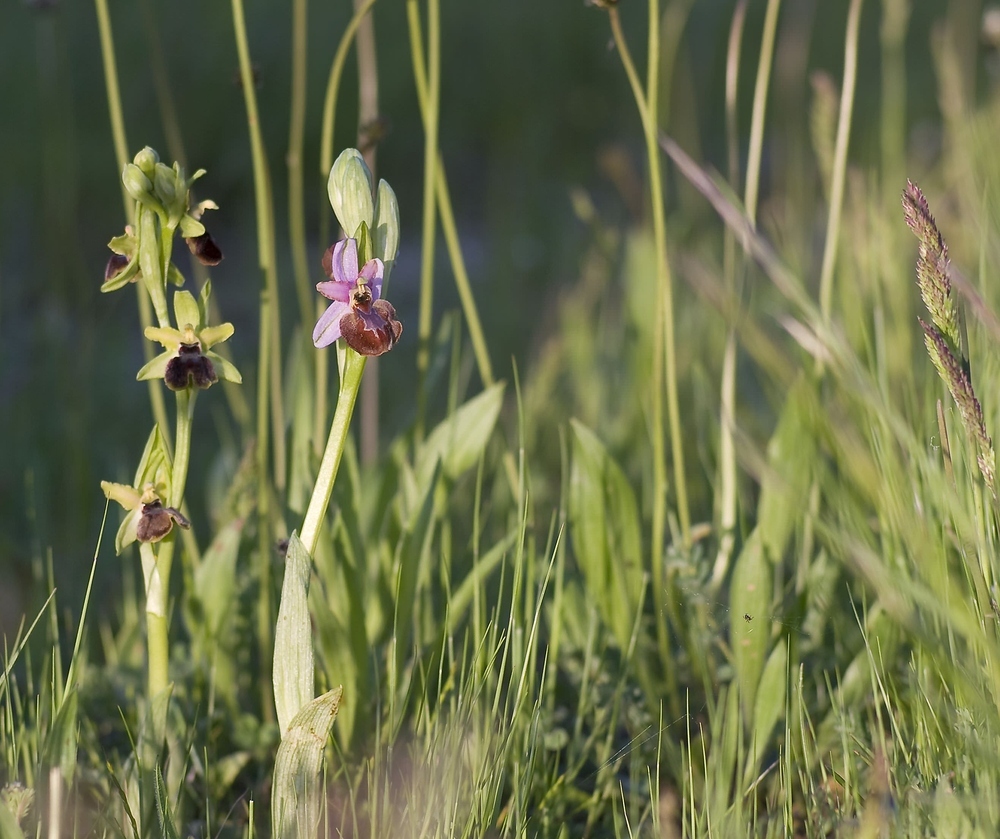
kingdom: Plantae
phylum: Tracheophyta
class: Liliopsida
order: Asparagales
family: Orchidaceae
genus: Ophrys
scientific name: Ophrys sphegodes
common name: Early spider-orchid
